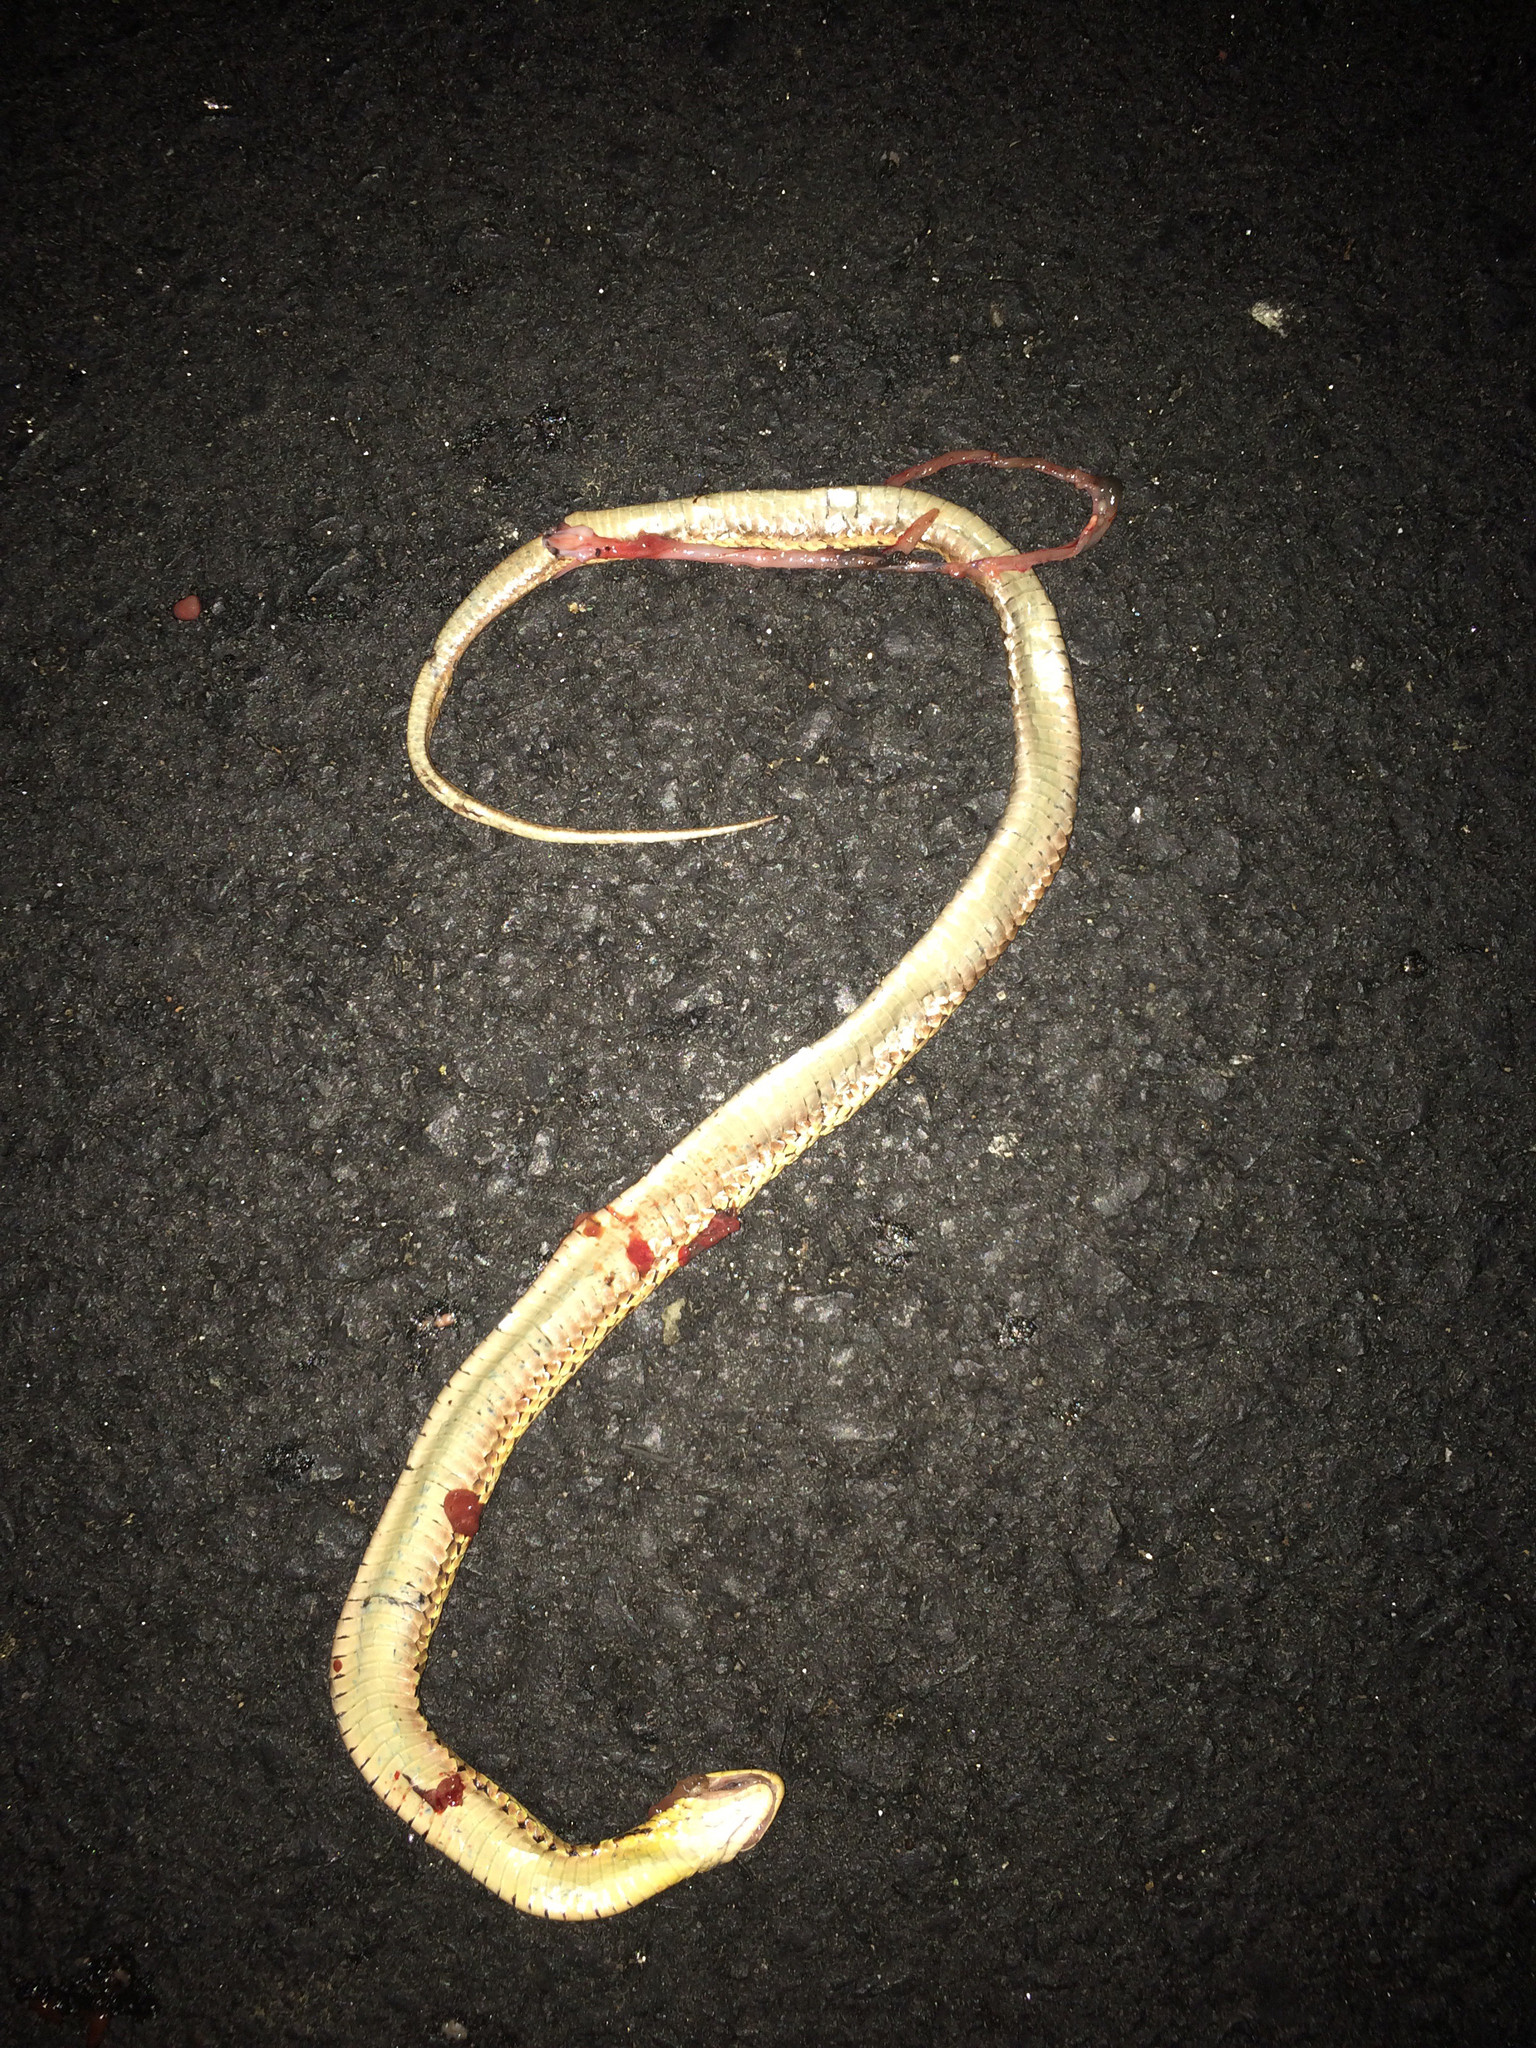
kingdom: Animalia
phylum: Chordata
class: Squamata
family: Colubridae
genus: Thamnophis
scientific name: Thamnophis sirtalis
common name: Common garter snake
